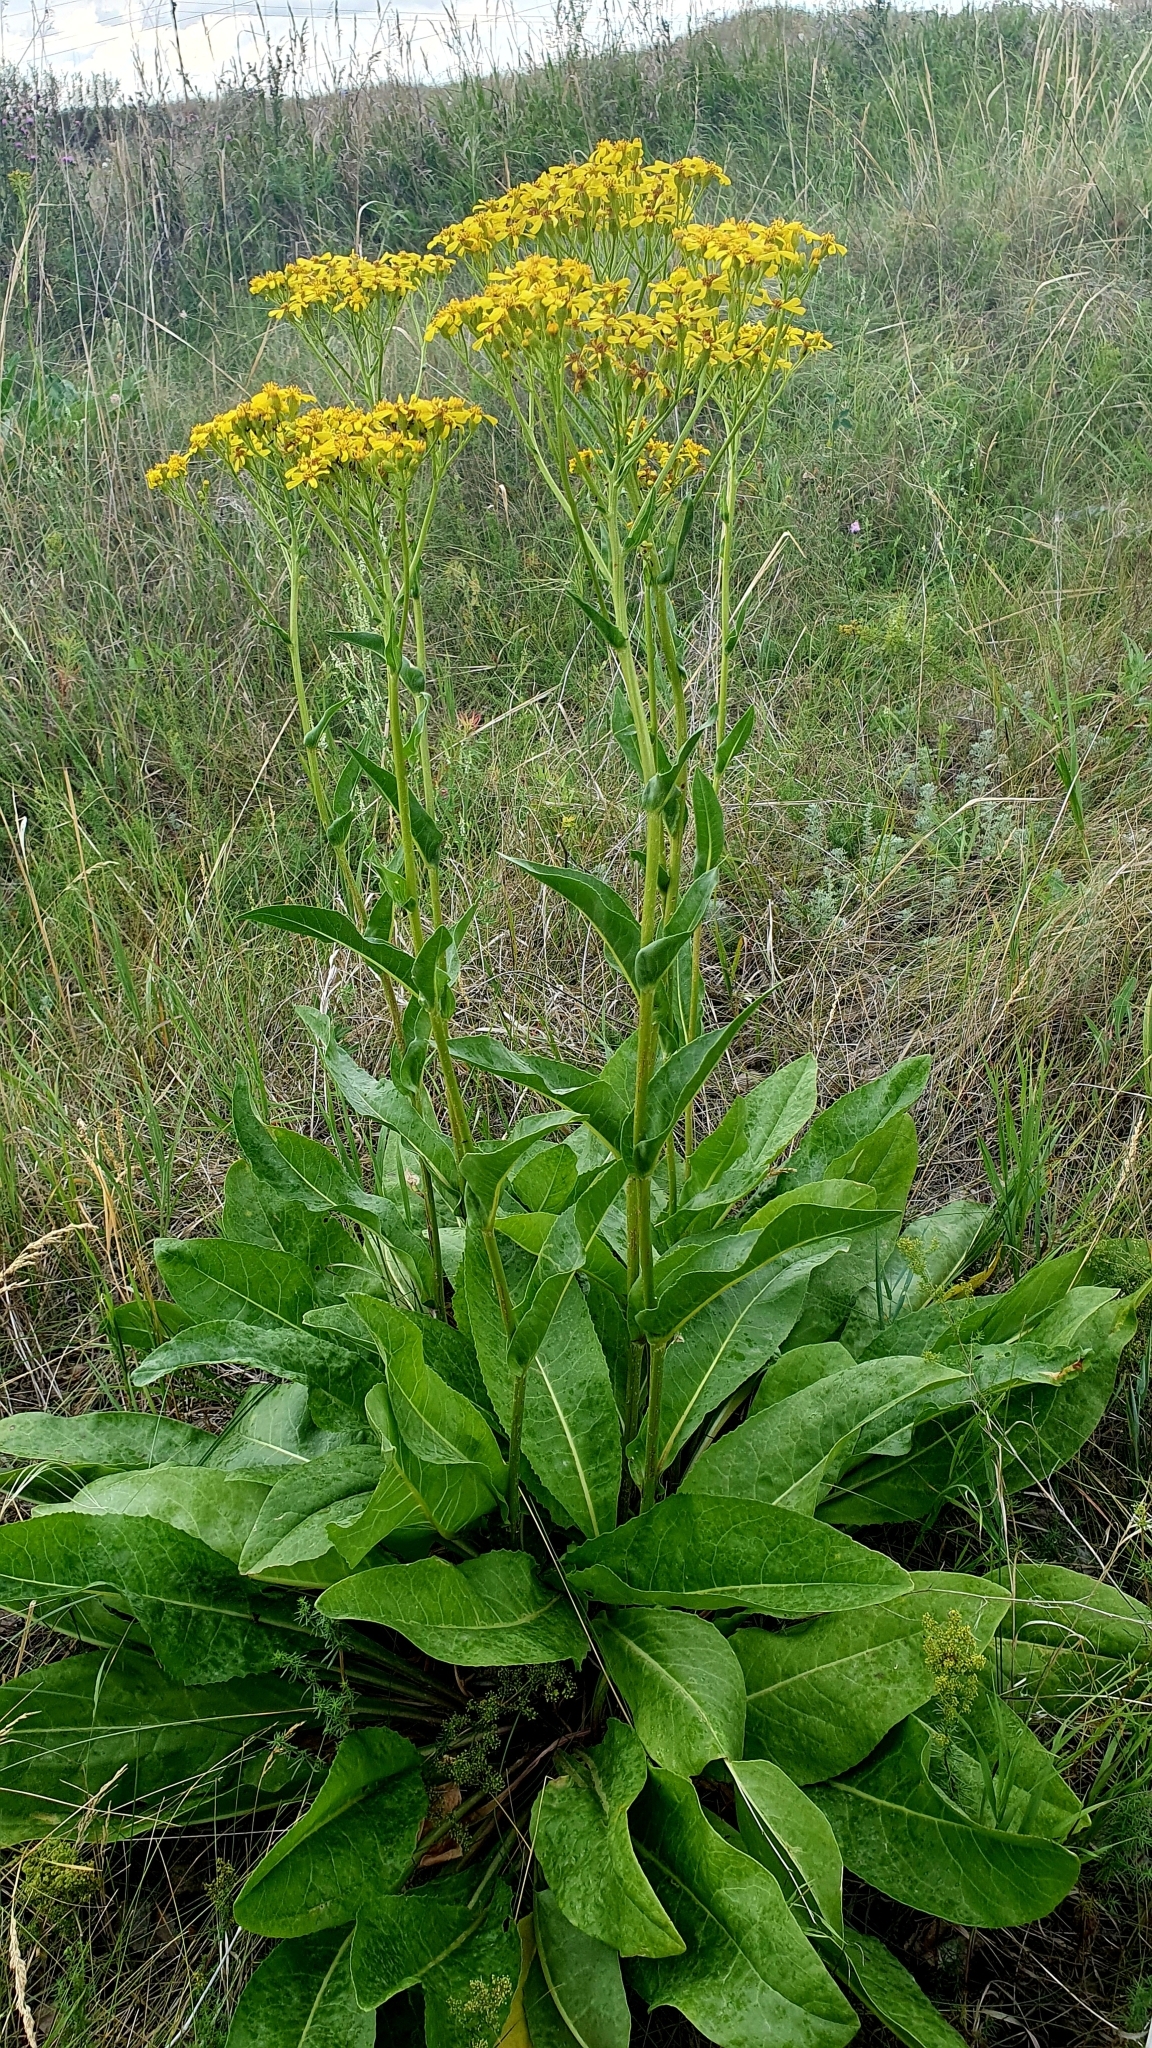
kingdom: Plantae
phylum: Tracheophyta
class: Magnoliopsida
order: Asterales
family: Asteraceae
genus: Senecio
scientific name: Senecio doria
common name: Golden ragwort
